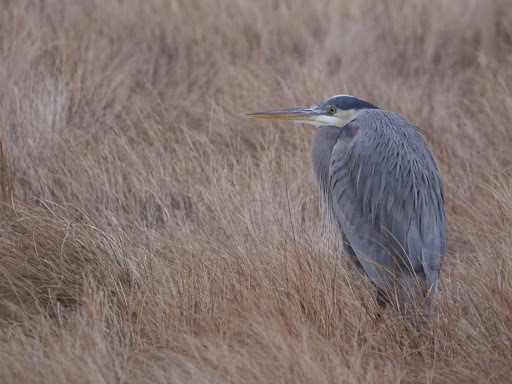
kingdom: Animalia
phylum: Chordata
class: Aves
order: Pelecaniformes
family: Ardeidae
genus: Ardea
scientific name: Ardea herodias
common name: Great blue heron
